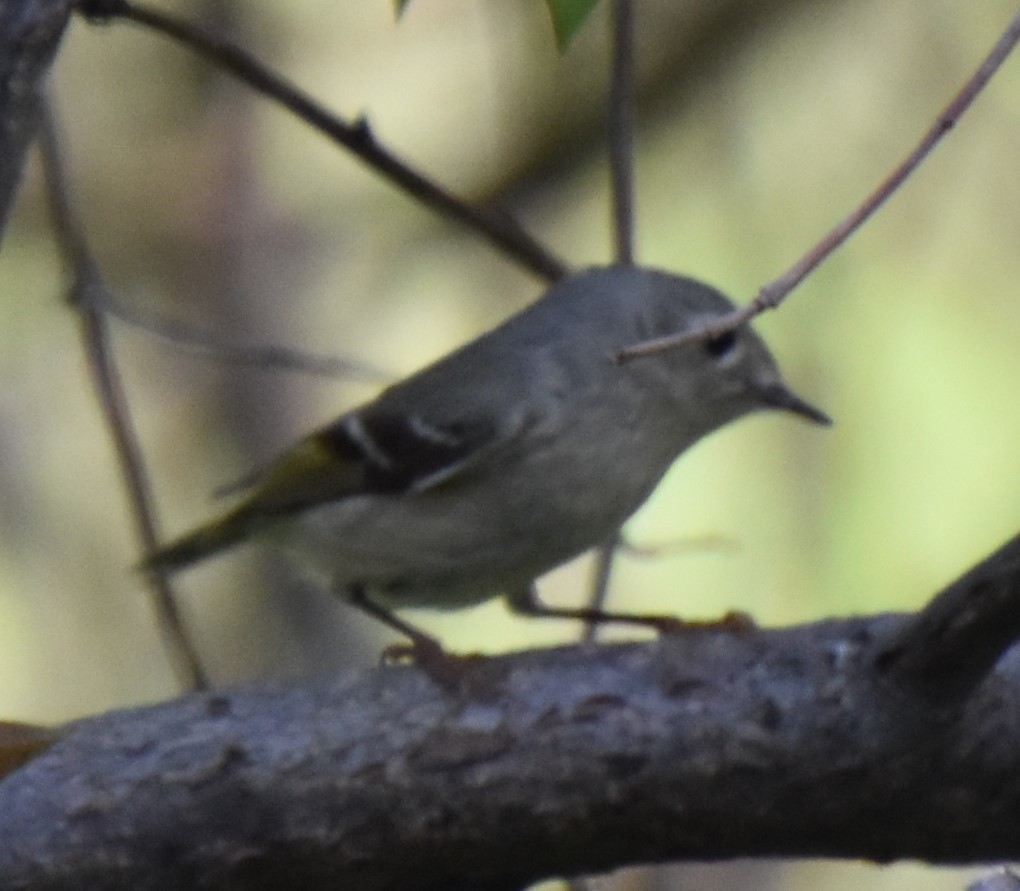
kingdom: Animalia
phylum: Chordata
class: Aves
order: Passeriformes
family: Regulidae
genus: Regulus
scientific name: Regulus calendula
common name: Ruby-crowned kinglet
